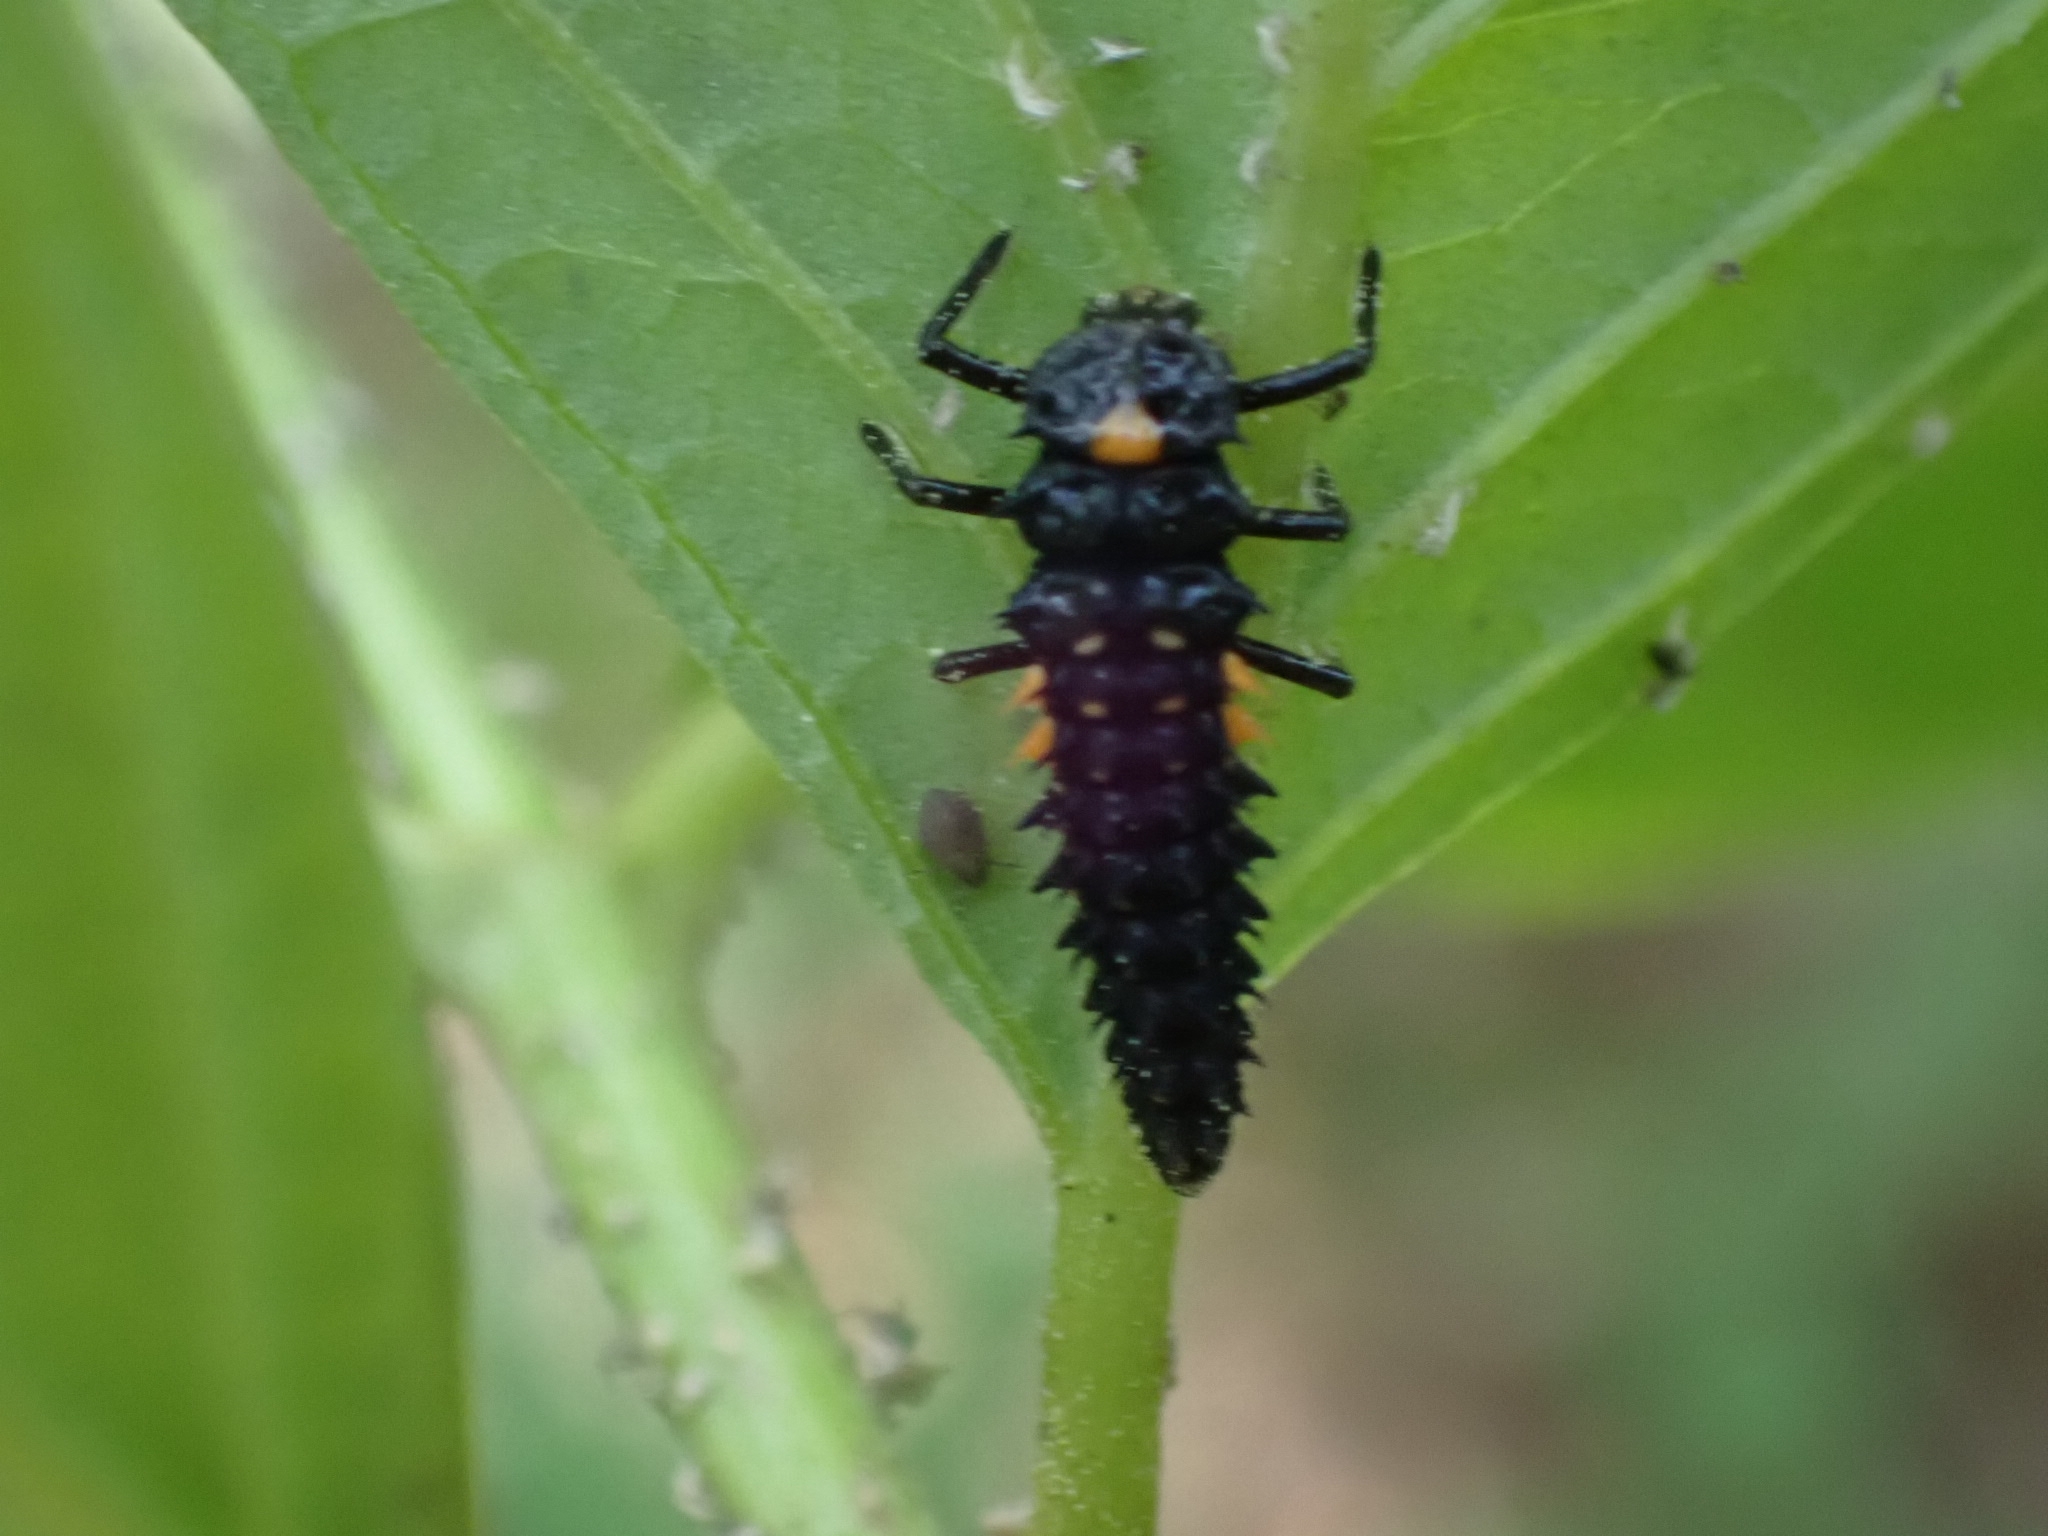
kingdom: Animalia
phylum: Arthropoda
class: Insecta
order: Coleoptera
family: Coccinellidae
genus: Anatis
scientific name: Anatis ocellata
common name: Eyed ladybird
